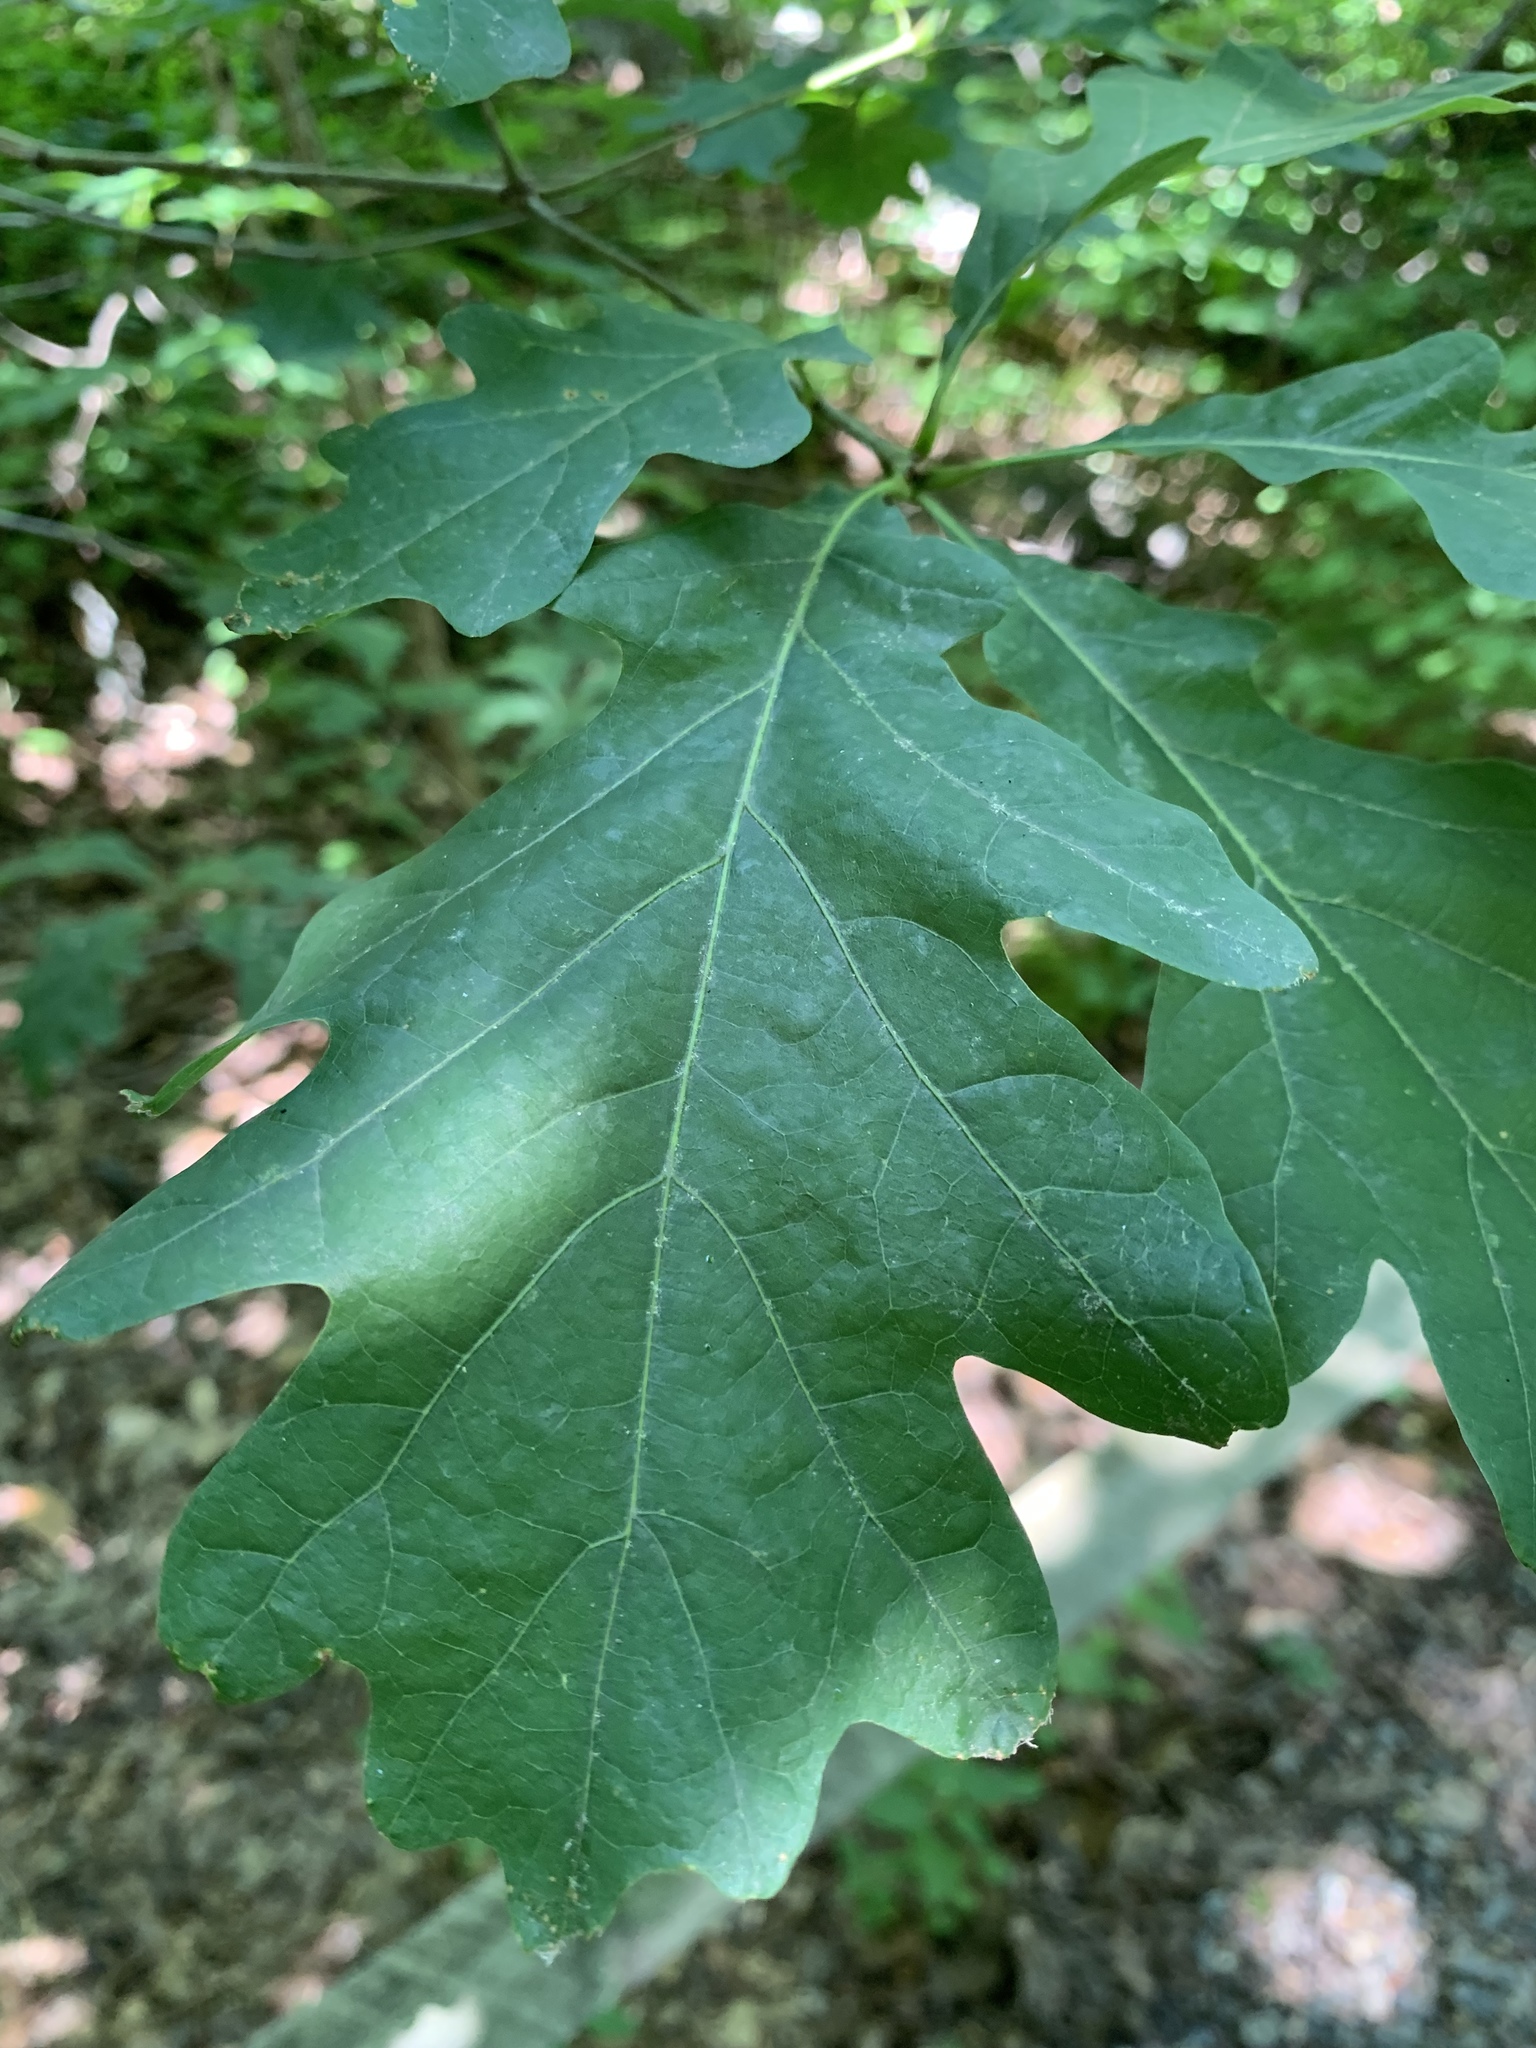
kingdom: Plantae
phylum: Tracheophyta
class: Magnoliopsida
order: Fagales
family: Fagaceae
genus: Quercus
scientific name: Quercus alba
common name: White oak
